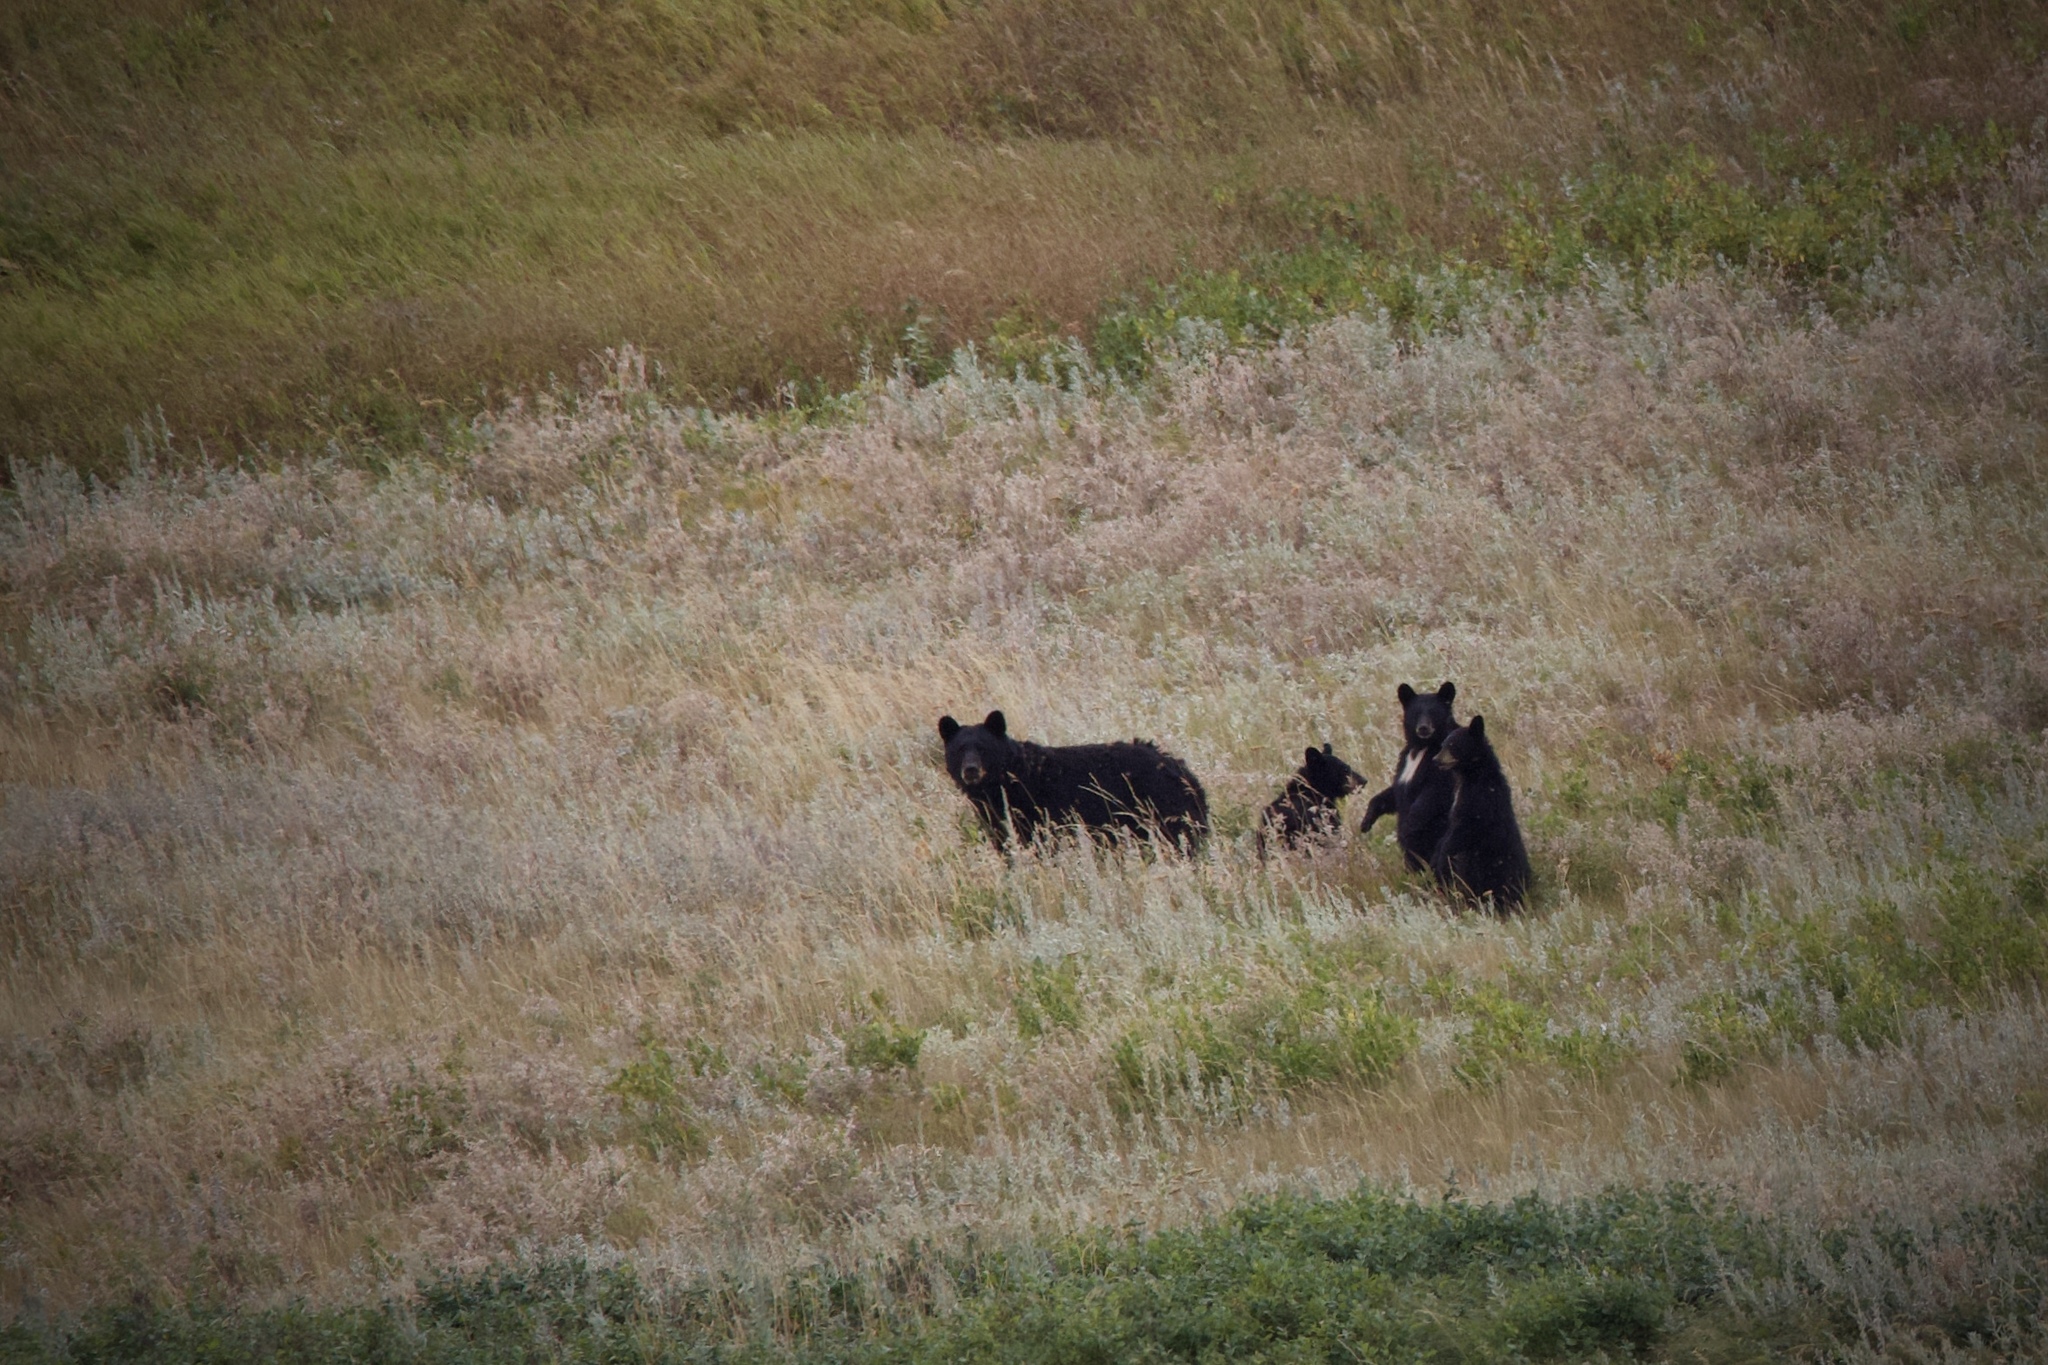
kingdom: Animalia
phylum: Chordata
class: Mammalia
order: Carnivora
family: Ursidae
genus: Ursus
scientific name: Ursus americanus
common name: American black bear
